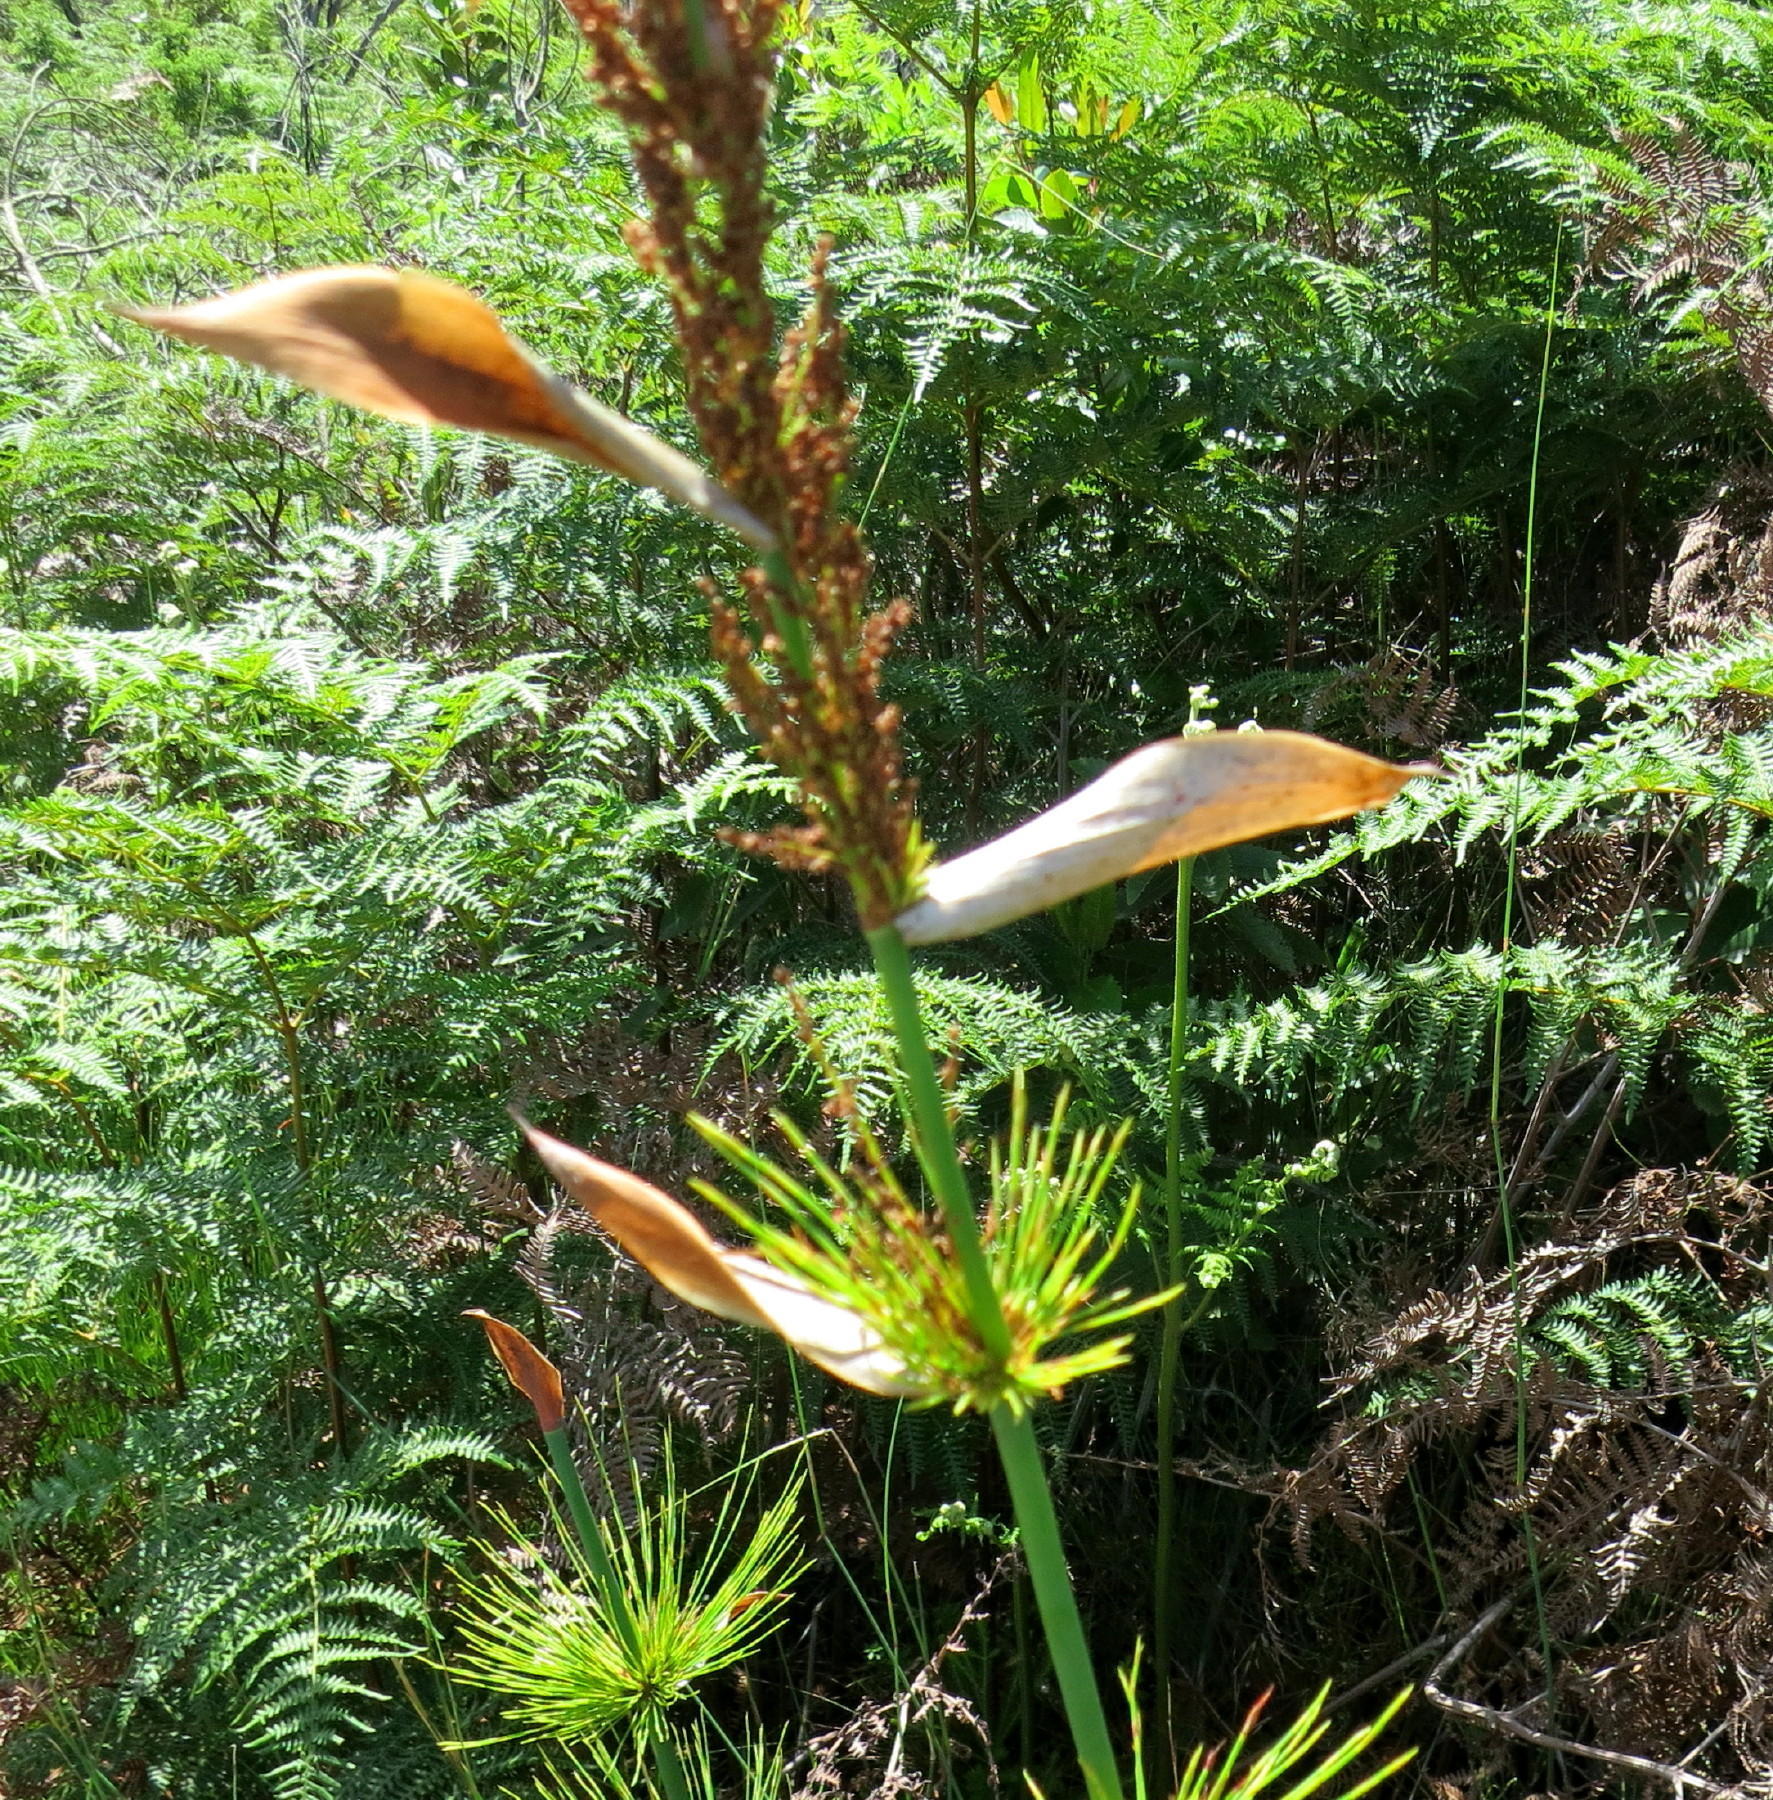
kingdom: Plantae
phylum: Tracheophyta
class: Liliopsida
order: Poales
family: Restionaceae
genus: Elegia
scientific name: Elegia capensis
